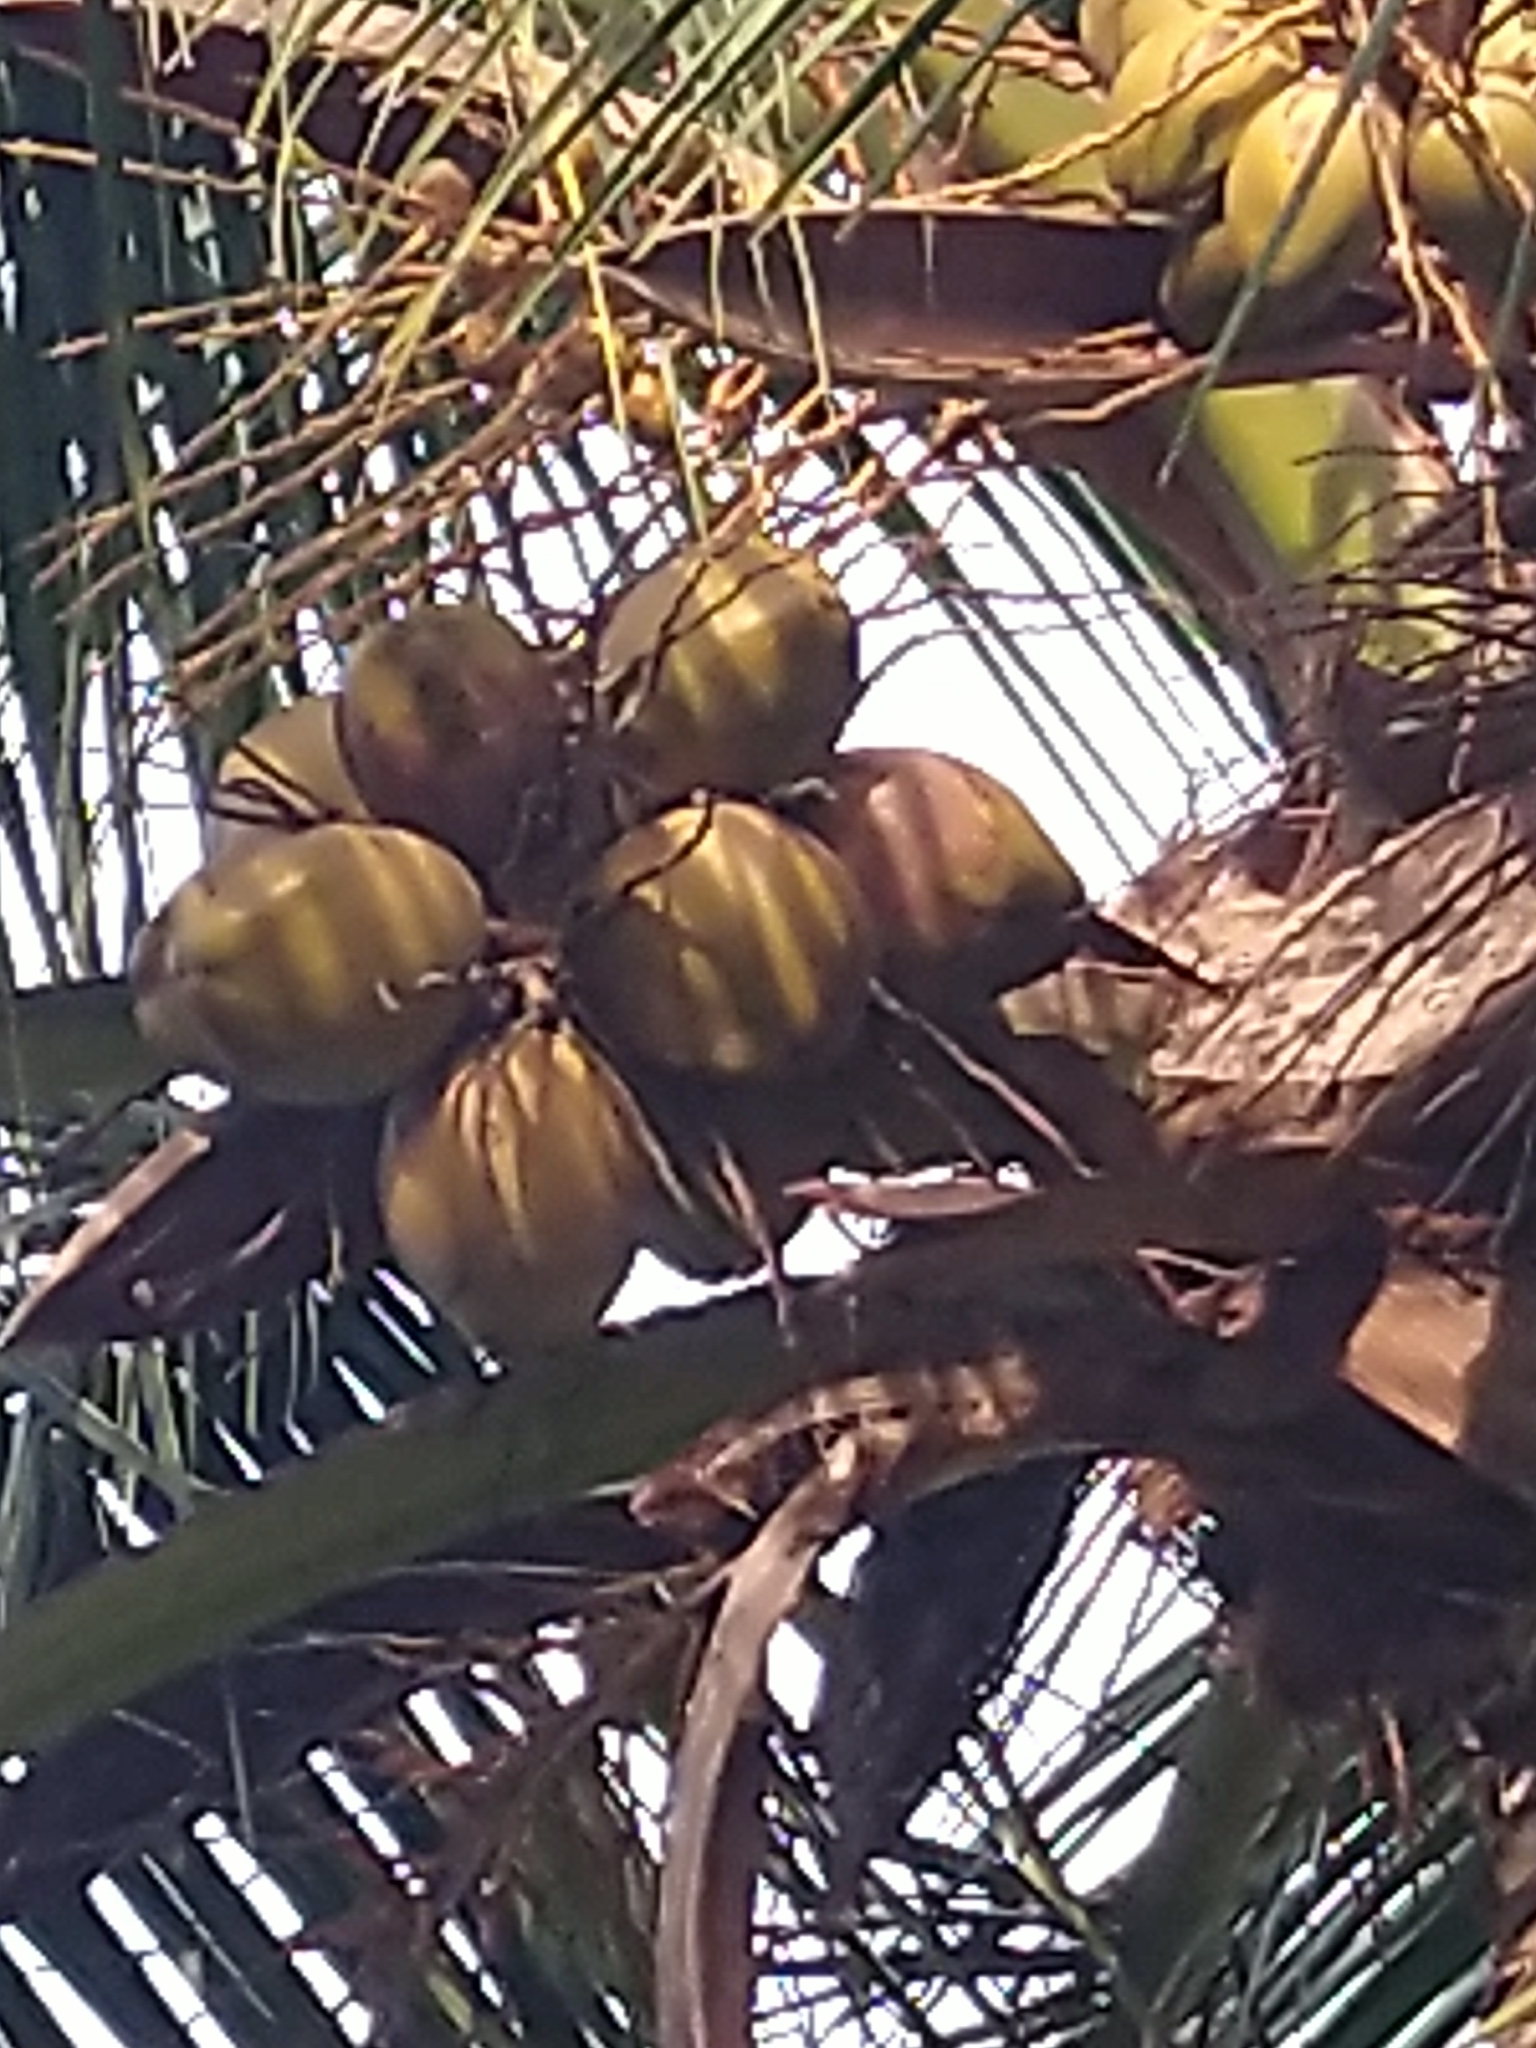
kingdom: Plantae
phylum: Tracheophyta
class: Liliopsida
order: Arecales
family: Arecaceae
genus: Cocos
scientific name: Cocos nucifera
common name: Coconut palm
